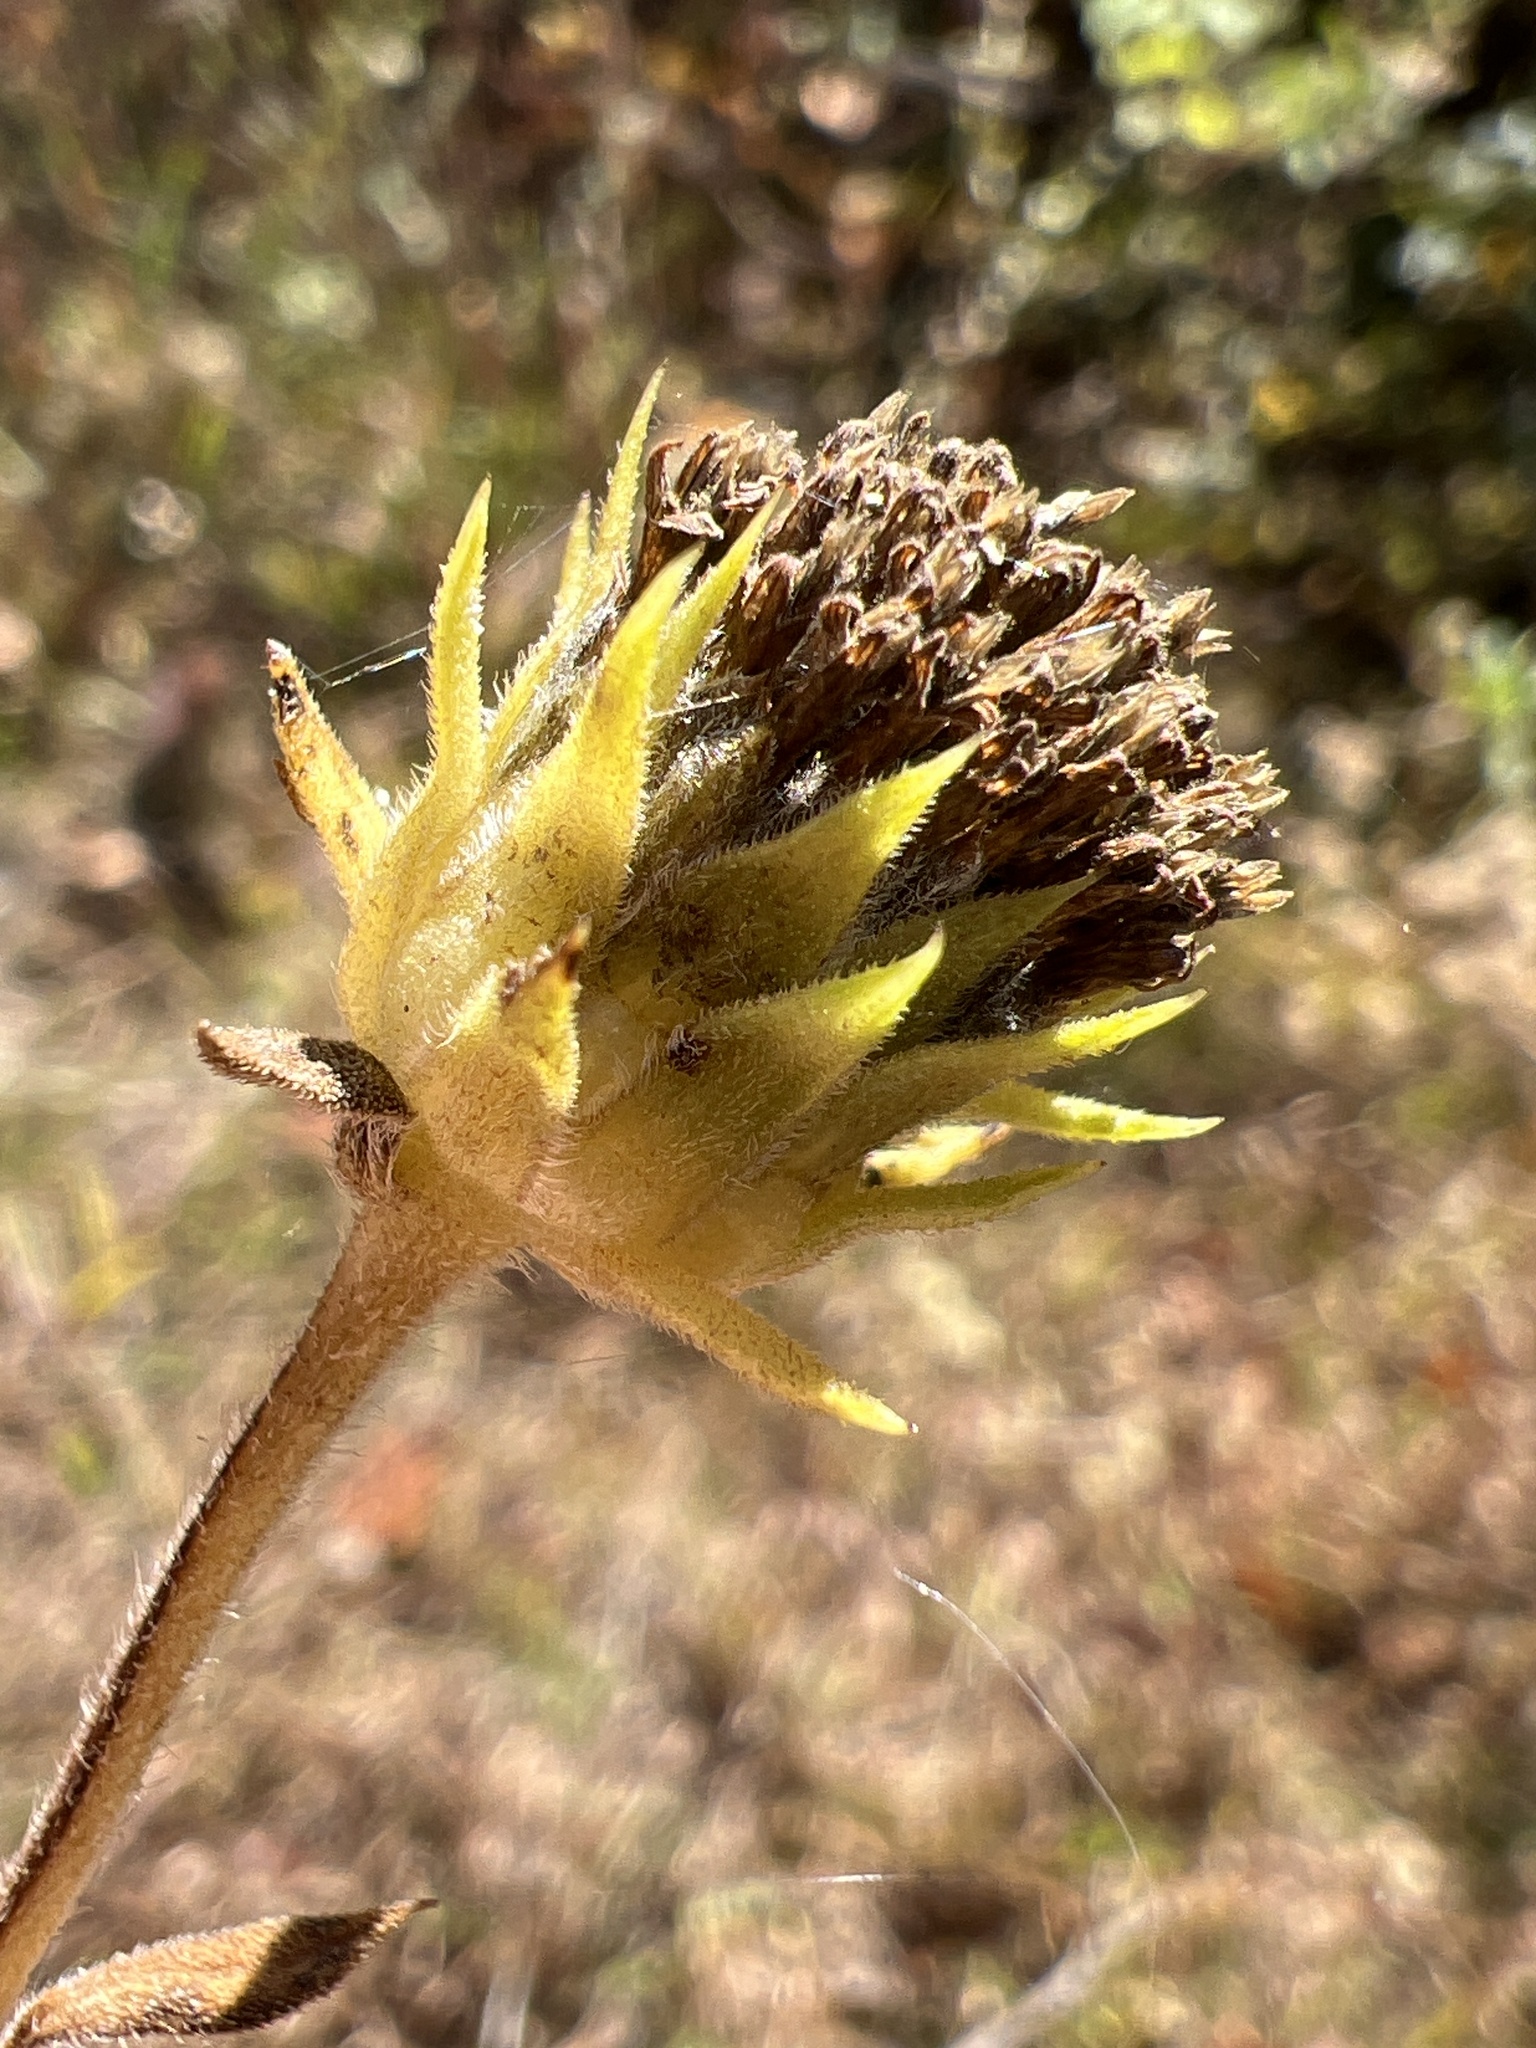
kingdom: Plantae
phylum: Tracheophyta
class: Magnoliopsida
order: Asterales
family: Asteraceae
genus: Helianthus
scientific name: Helianthus schweinitzii
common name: Schweinitz's sunflower
